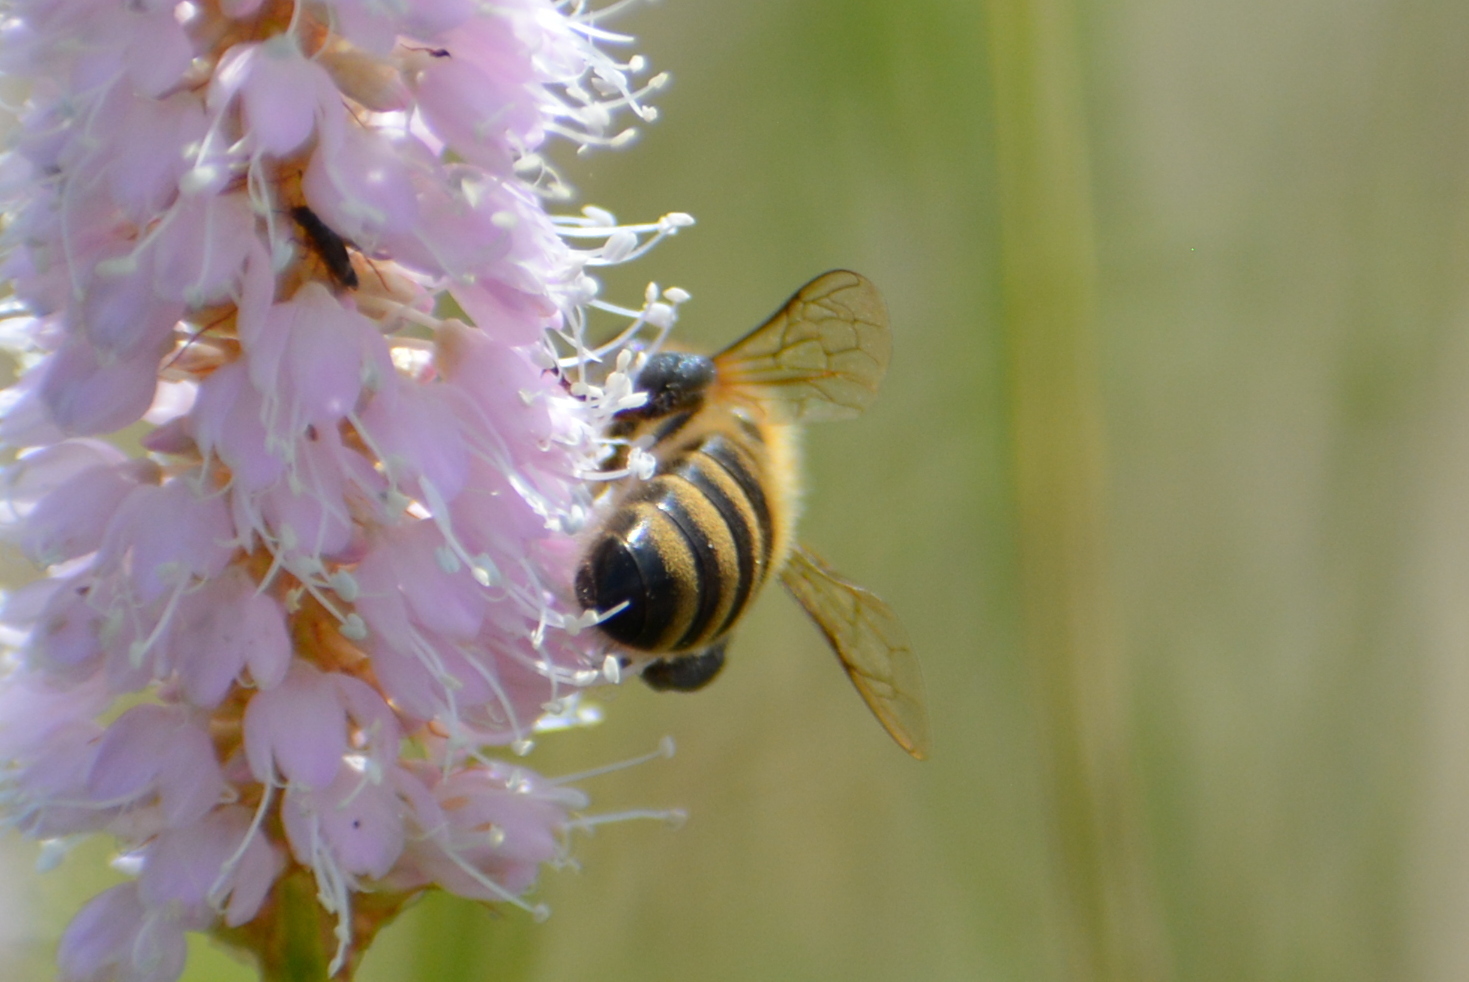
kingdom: Animalia
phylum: Arthropoda
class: Insecta
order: Hymenoptera
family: Apidae
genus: Apis
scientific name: Apis mellifera
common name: Honey bee
